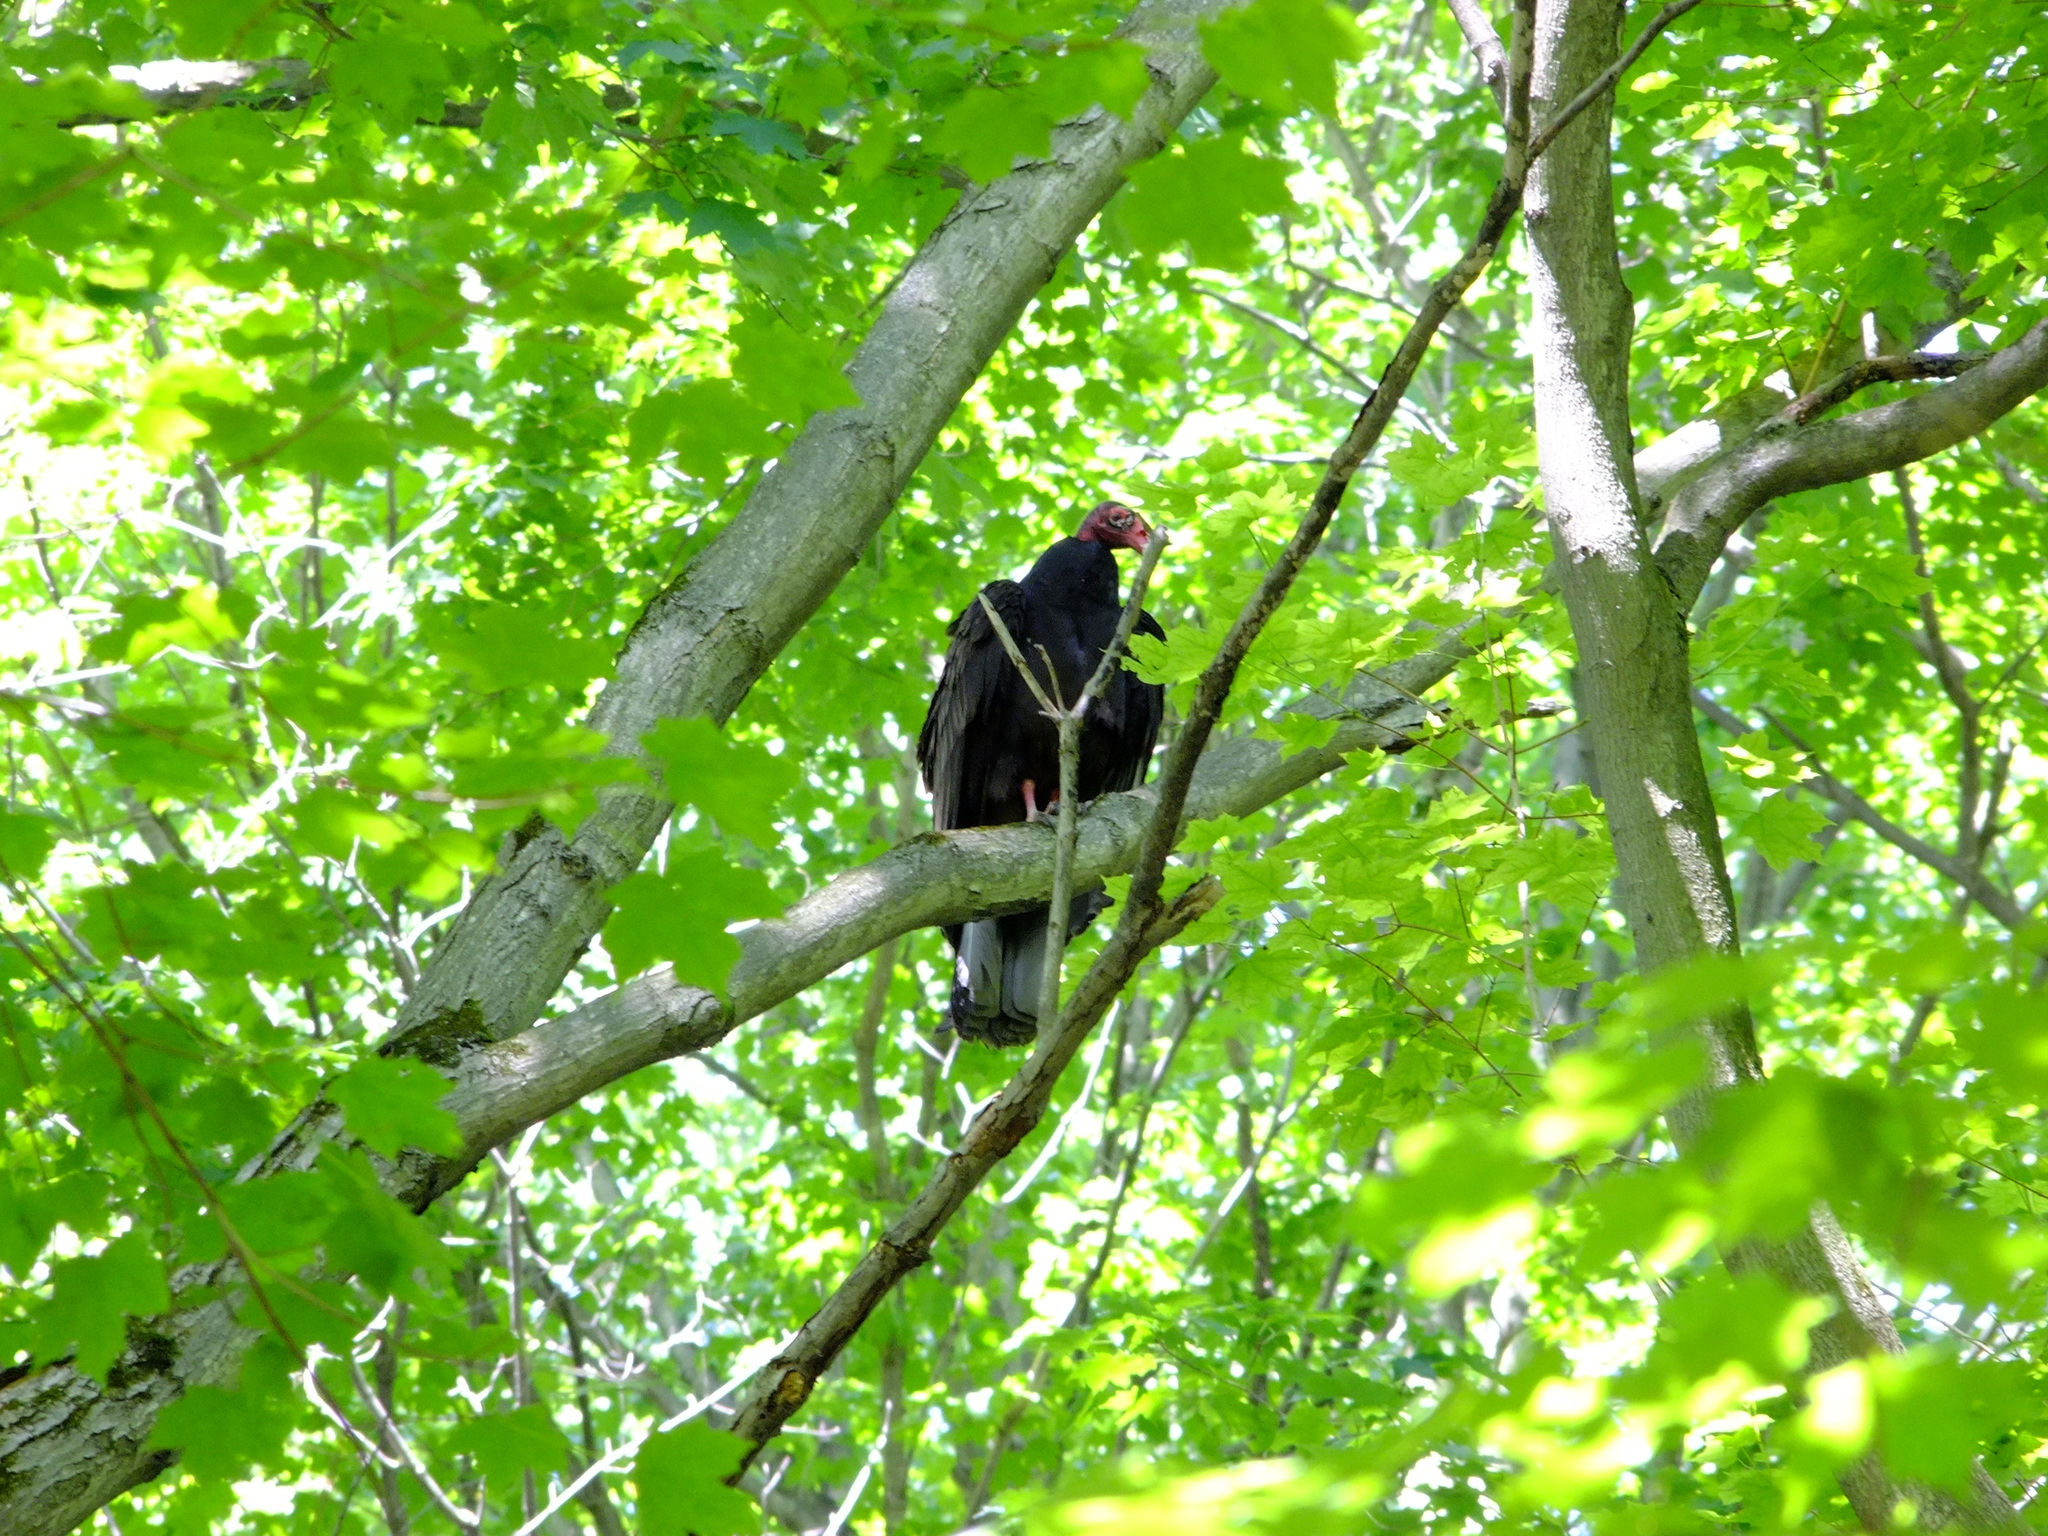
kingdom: Animalia
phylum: Chordata
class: Aves
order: Accipitriformes
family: Cathartidae
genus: Cathartes
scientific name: Cathartes aura
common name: Turkey vulture
